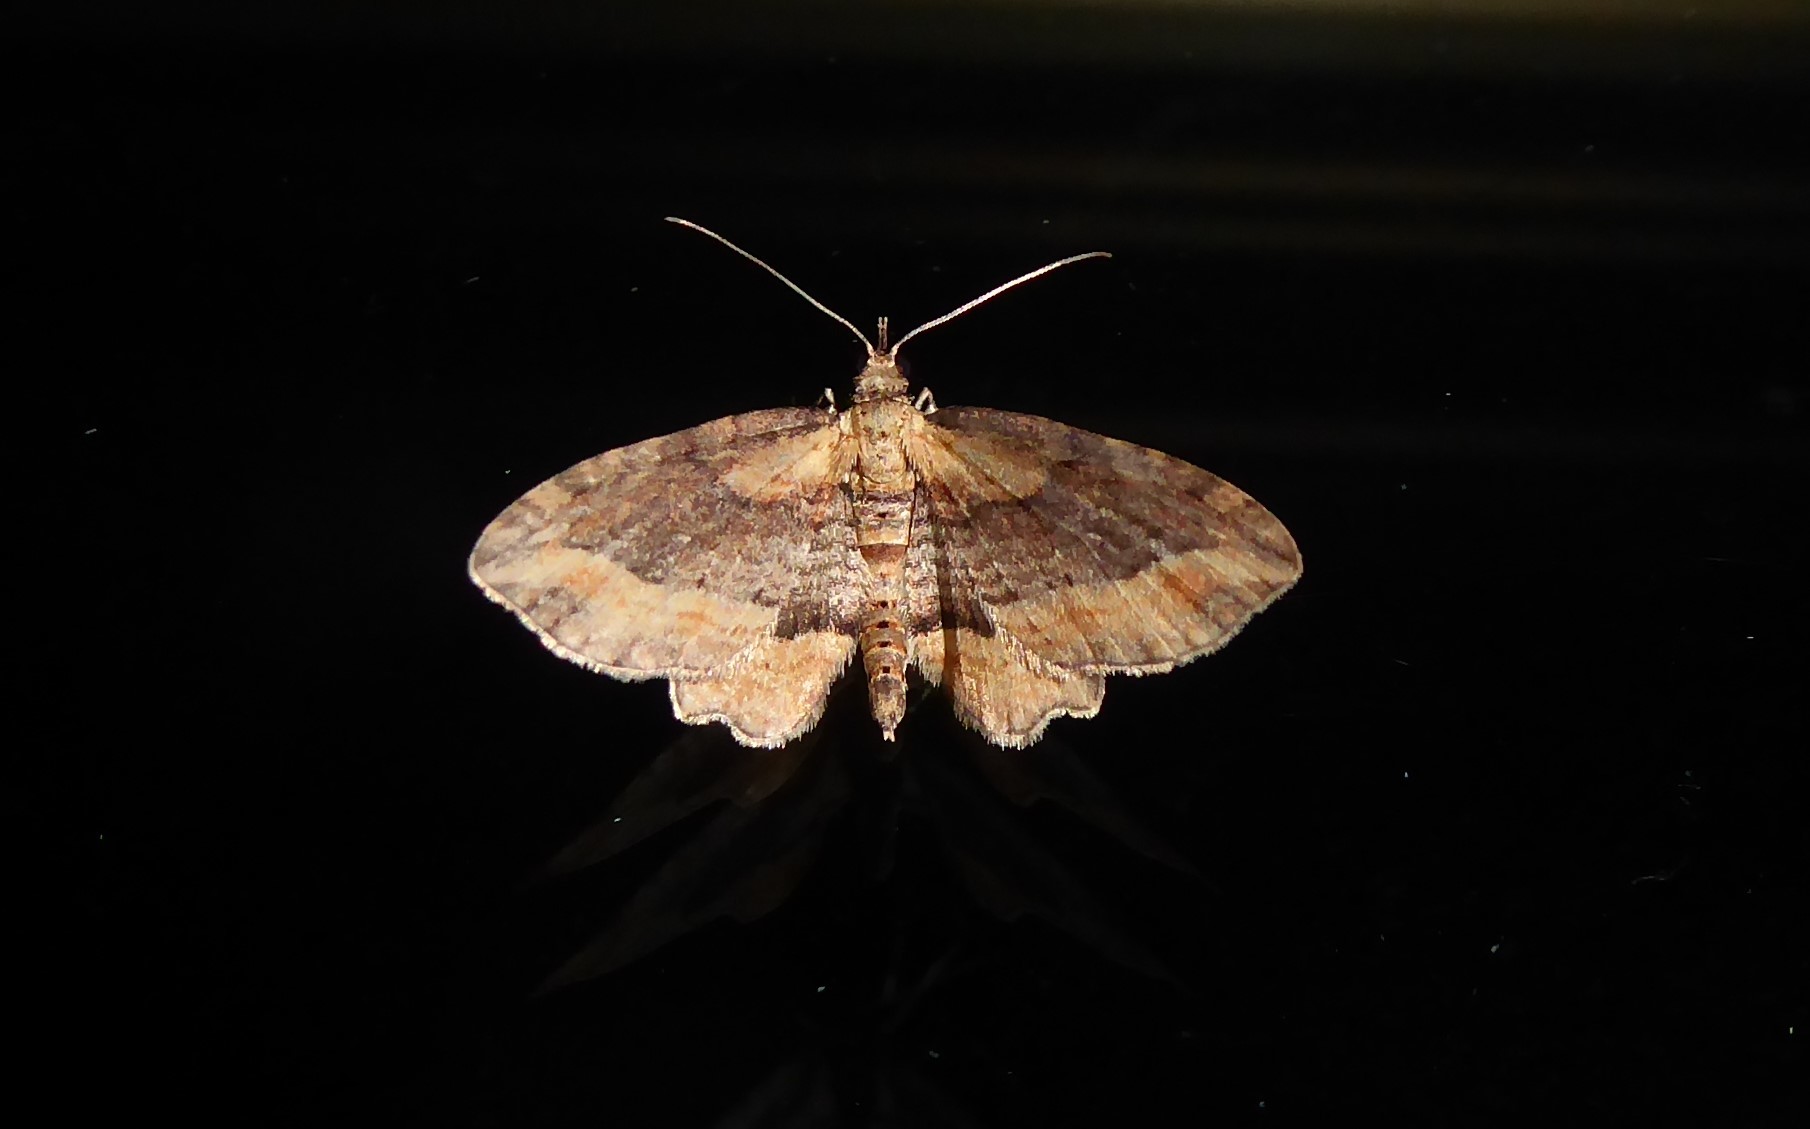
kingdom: Animalia
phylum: Arthropoda
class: Insecta
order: Lepidoptera
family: Geometridae
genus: Chloroclystis
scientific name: Chloroclystis filata
